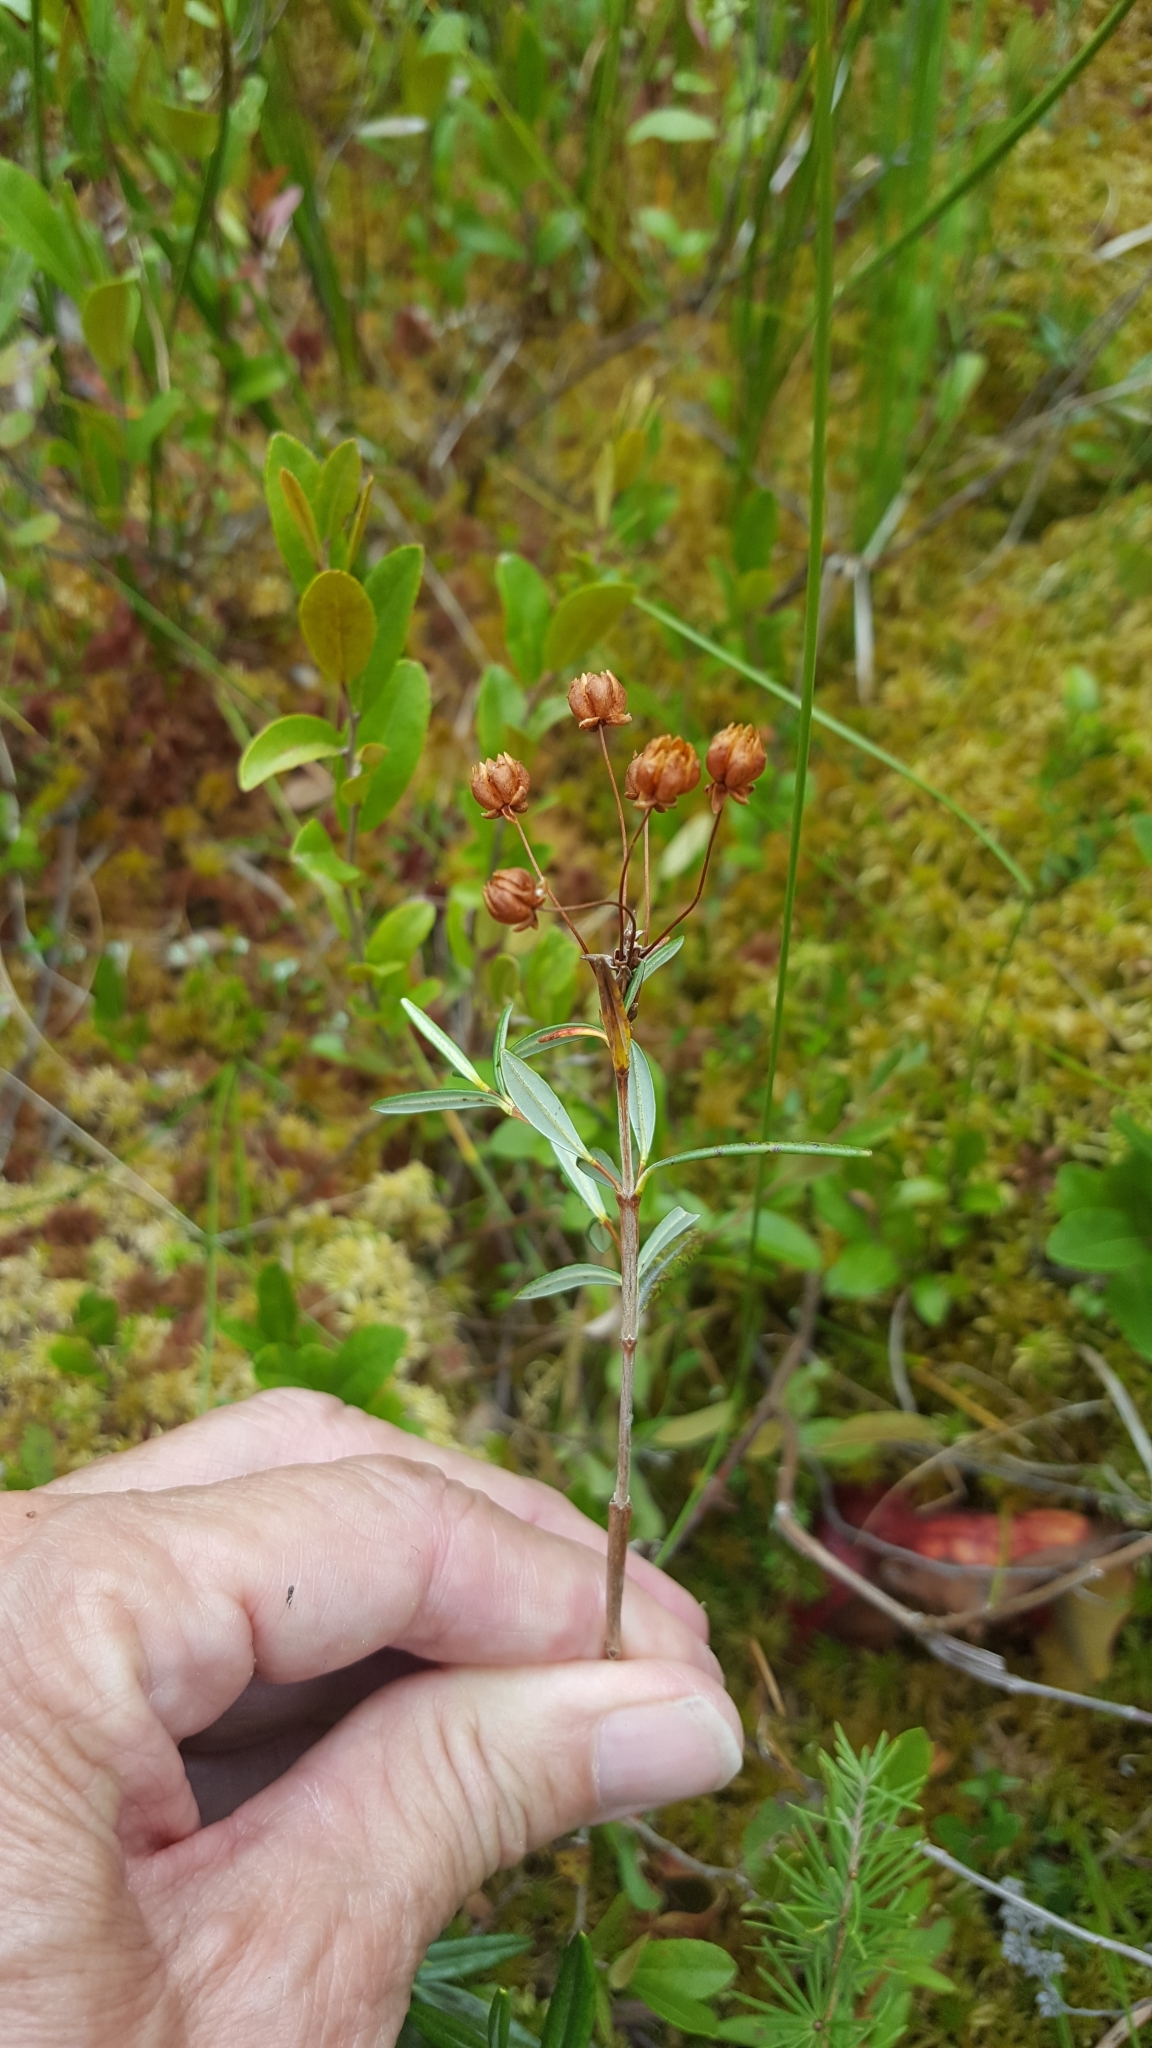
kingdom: Plantae
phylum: Tracheophyta
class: Magnoliopsida
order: Ericales
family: Ericaceae
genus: Kalmia
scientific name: Kalmia polifolia
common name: Bog-laurel
